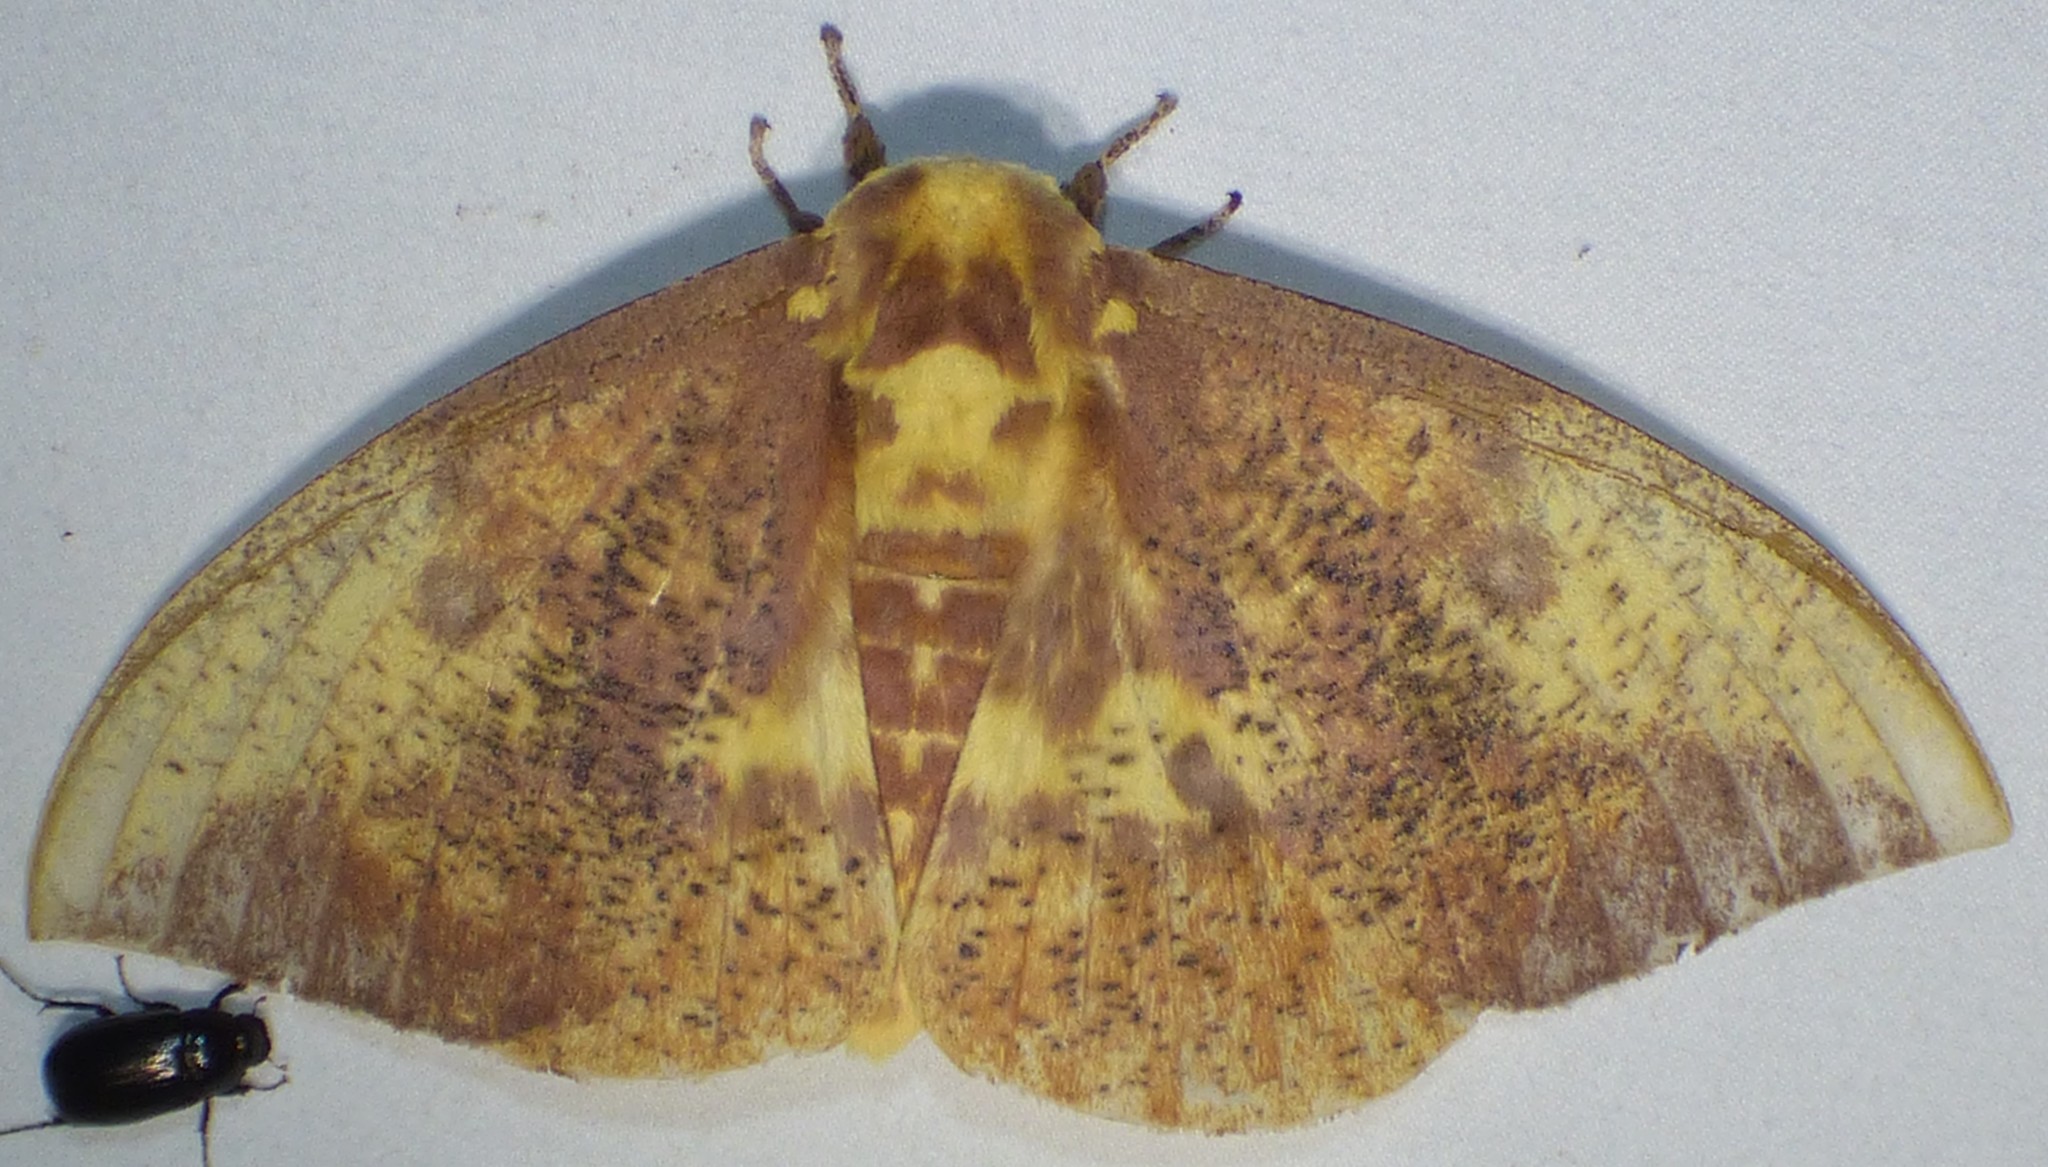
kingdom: Animalia
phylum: Arthropoda
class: Insecta
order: Lepidoptera
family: Saturniidae
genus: Eacles
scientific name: Eacles imperialis
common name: Imperial moth
